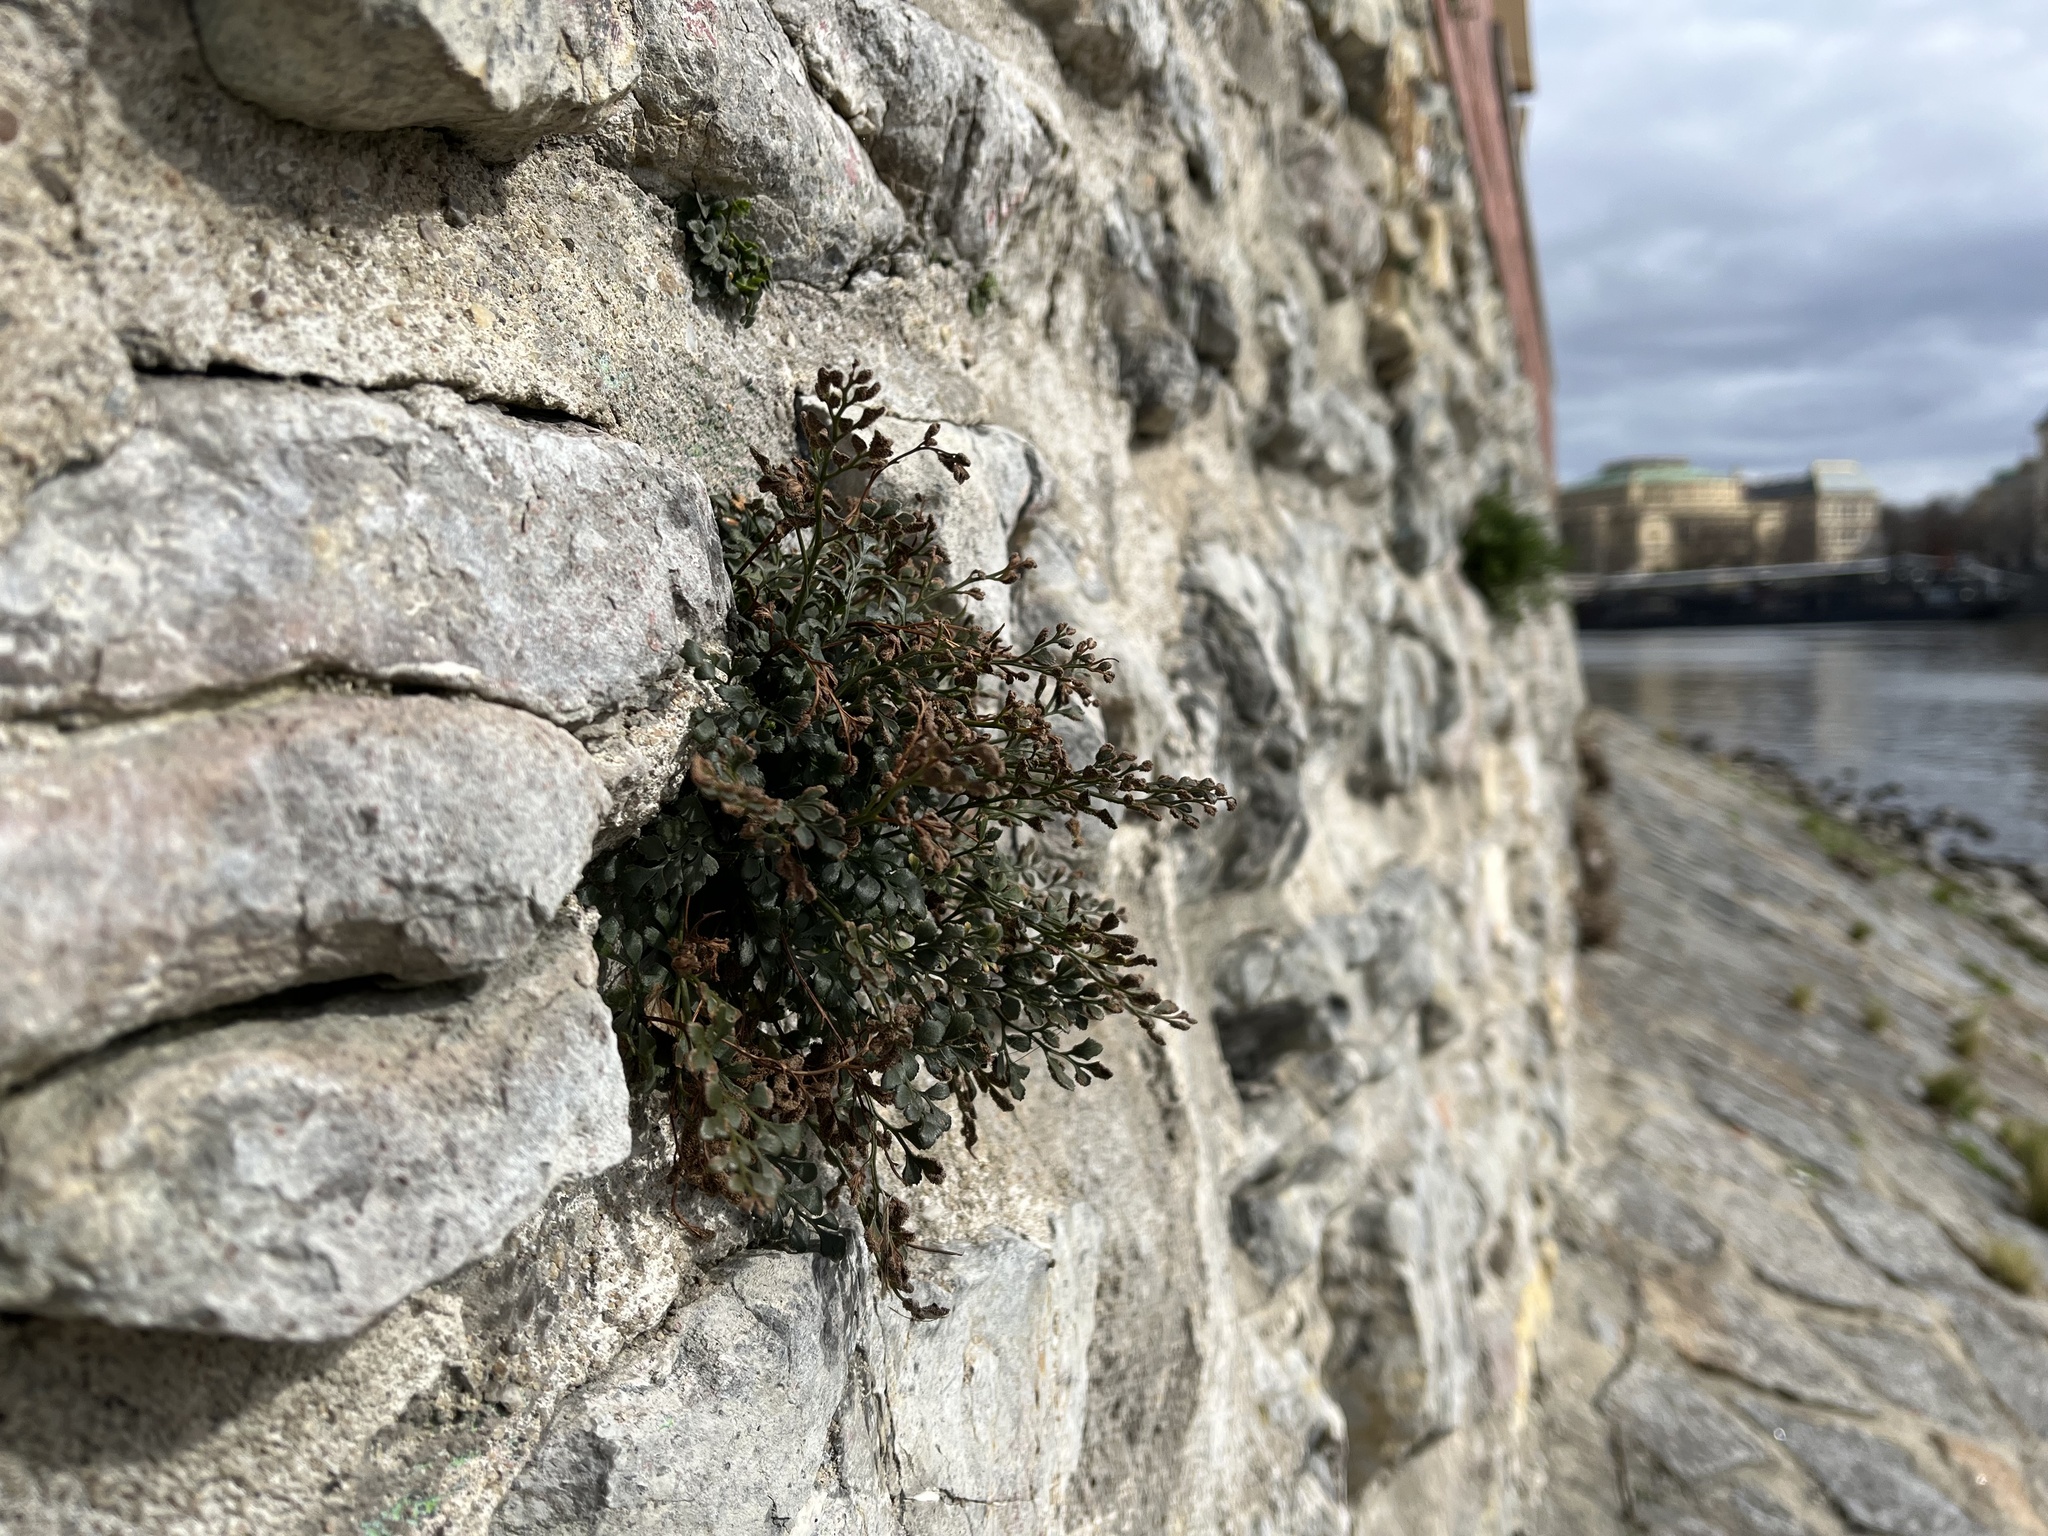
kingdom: Plantae
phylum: Tracheophyta
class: Polypodiopsida
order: Polypodiales
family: Aspleniaceae
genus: Asplenium
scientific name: Asplenium ruta-muraria
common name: Wall-rue
